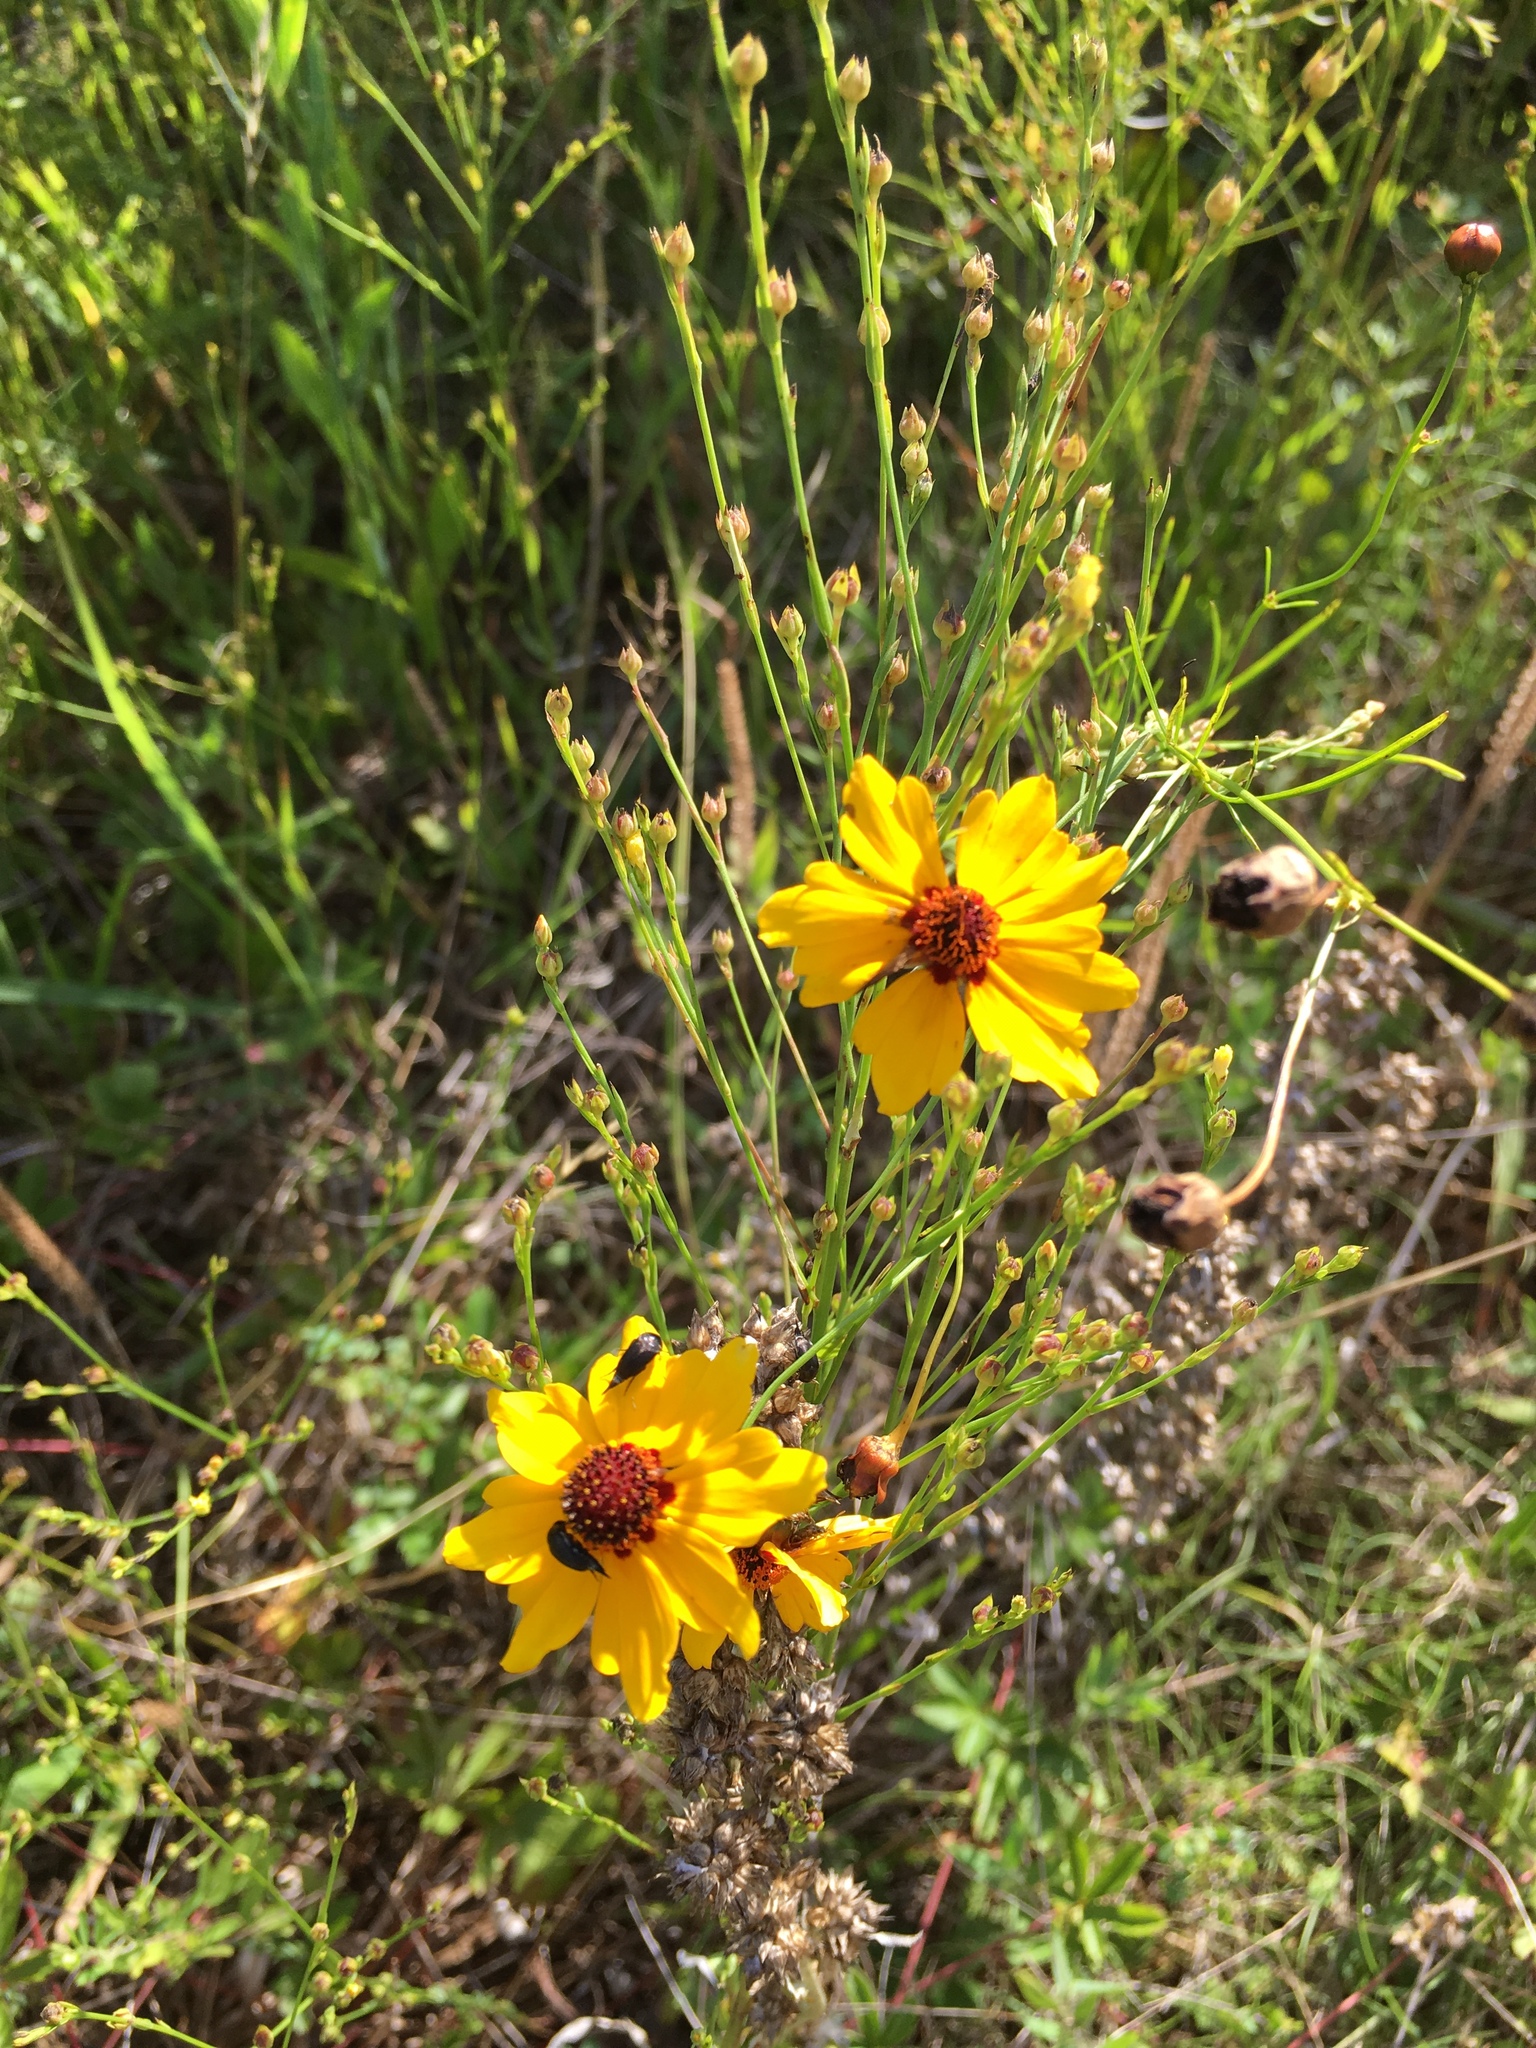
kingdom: Plantae
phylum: Tracheophyta
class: Magnoliopsida
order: Asterales
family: Asteraceae
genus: Coreopsis
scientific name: Coreopsis tinctoria
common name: Garden tickseed
